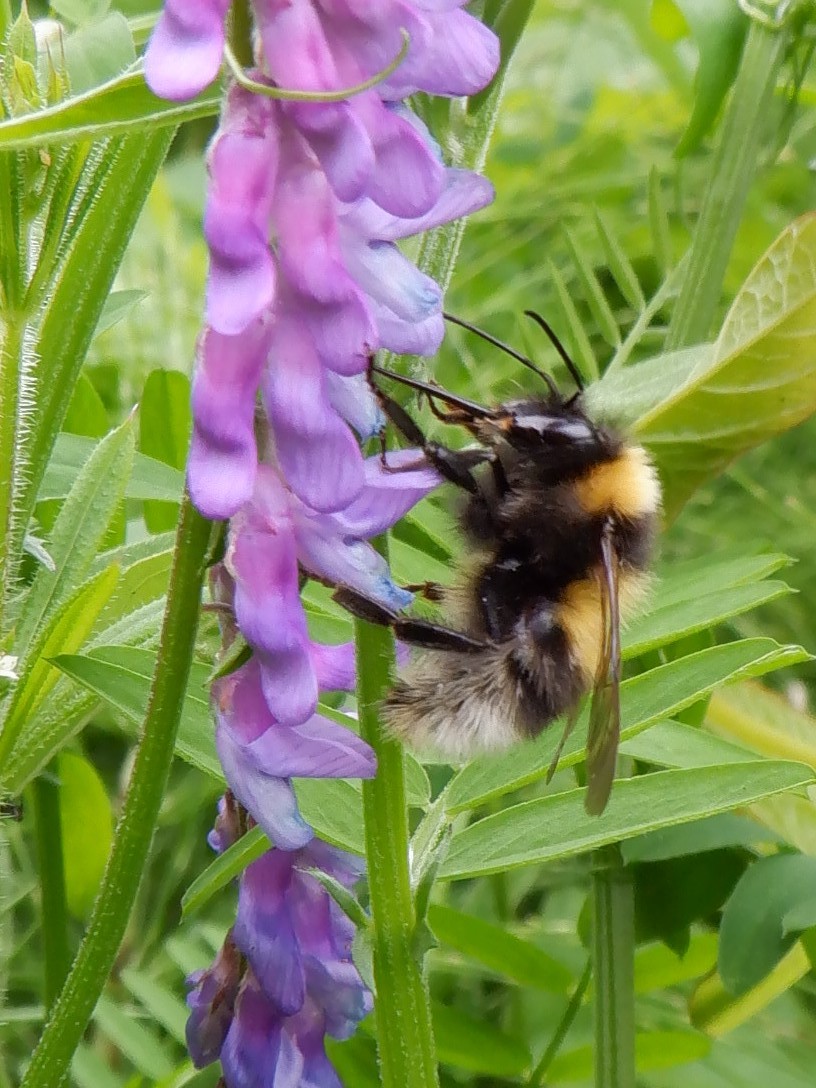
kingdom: Animalia
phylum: Arthropoda
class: Insecta
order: Hymenoptera
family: Apidae
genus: Bombus
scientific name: Bombus hortorum
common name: Garden bumblebee
